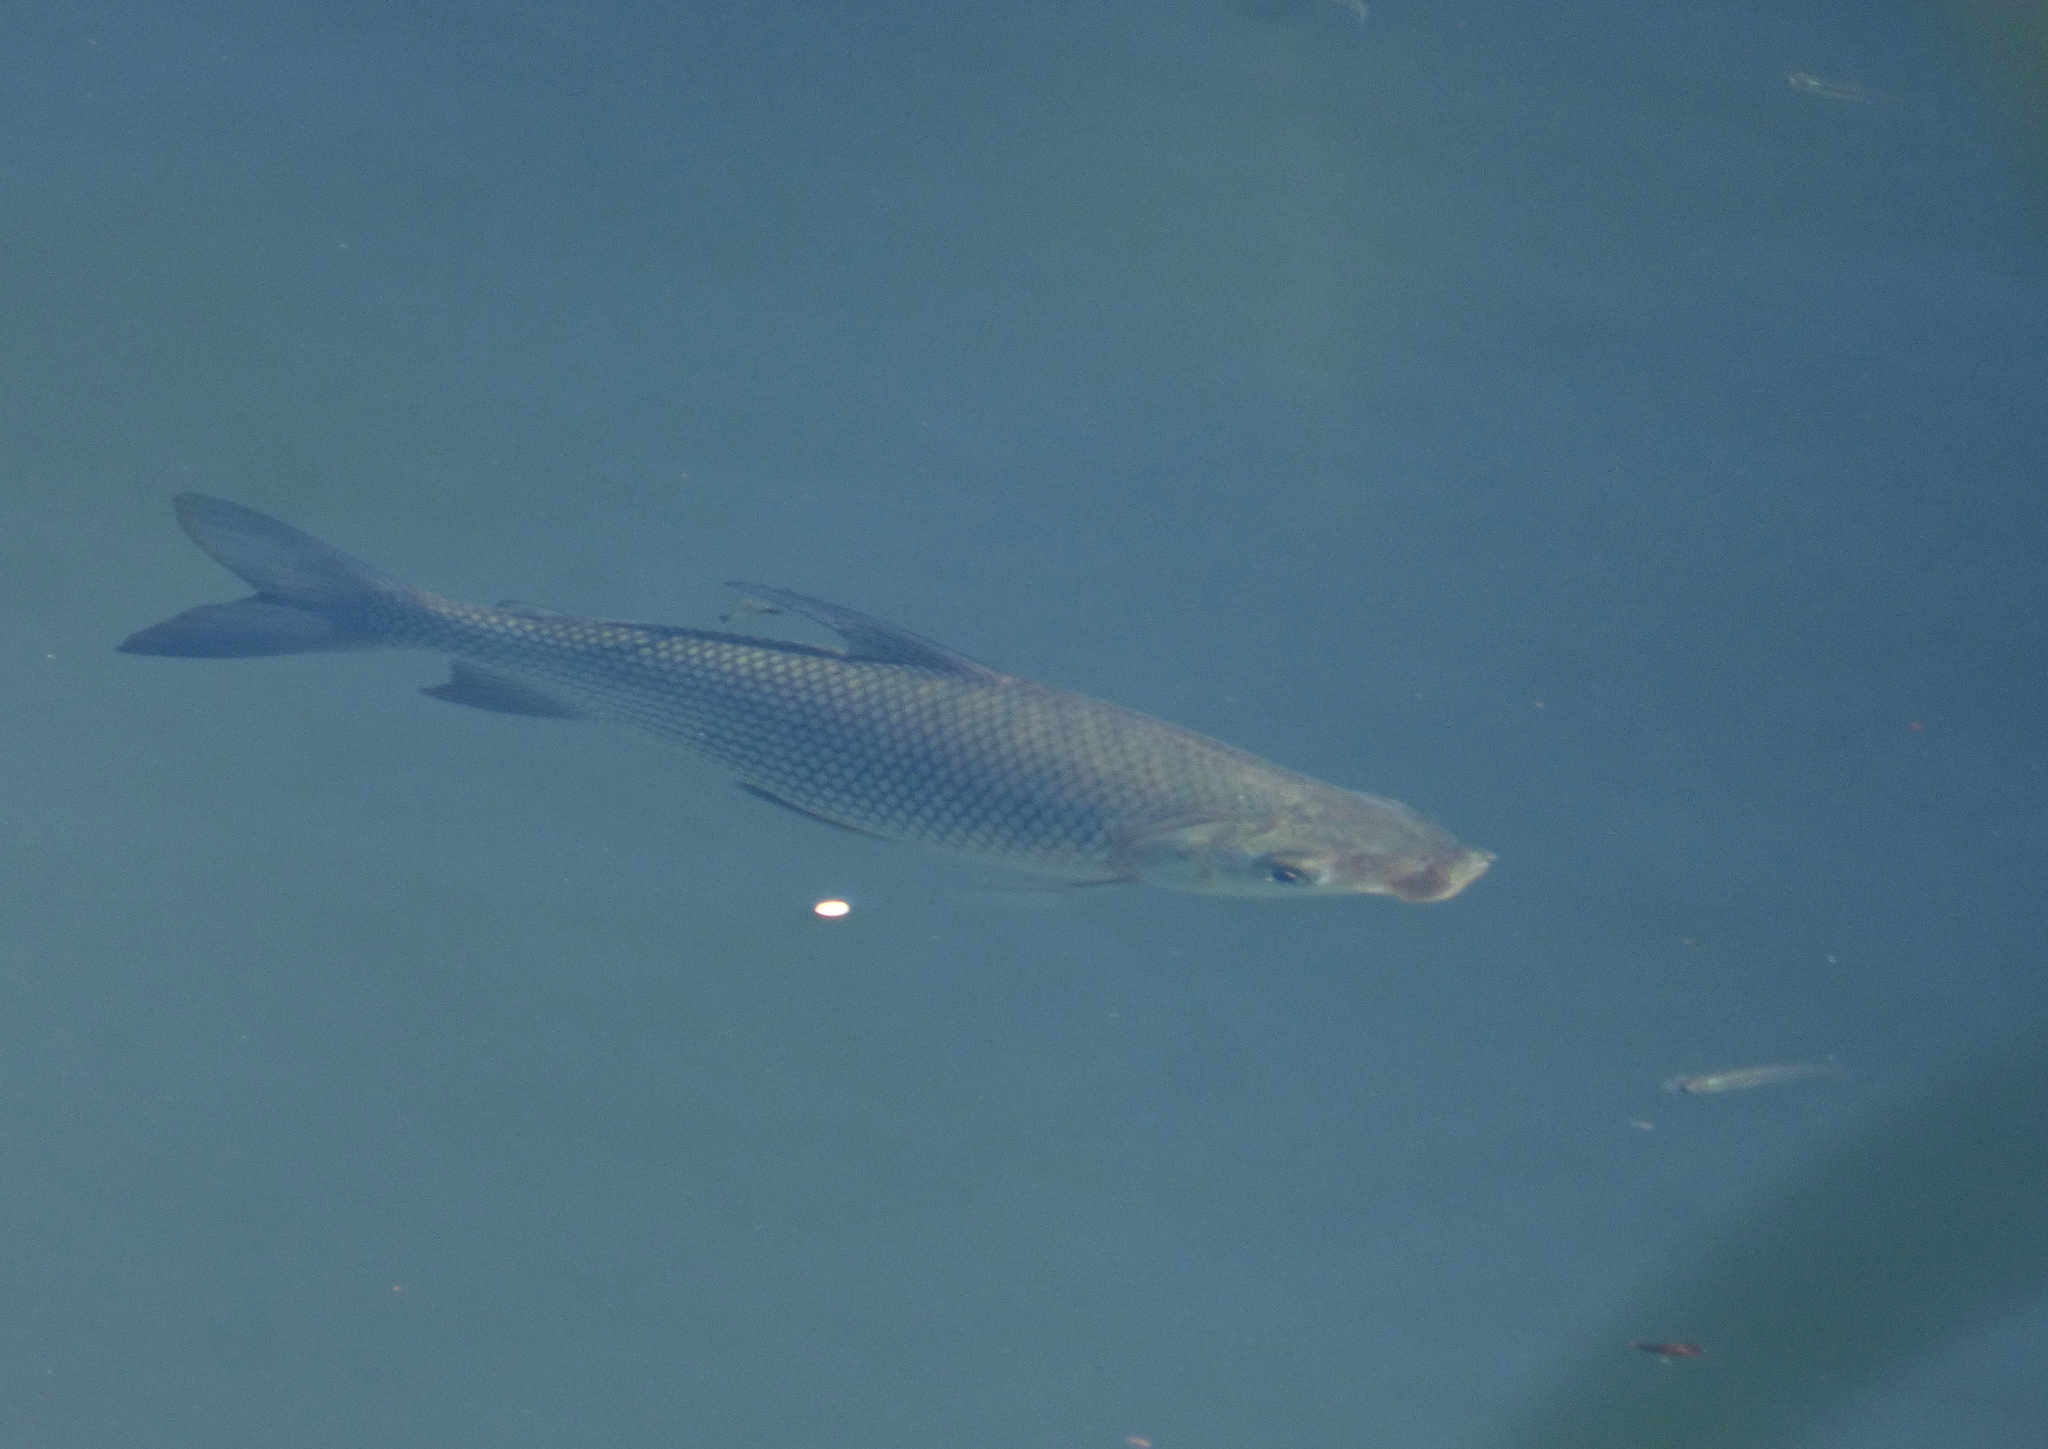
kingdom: Animalia
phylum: Chordata
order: Characiformes
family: Prochilodontidae
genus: Prochilodus
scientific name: Prochilodus lineatus
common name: Curimbata
